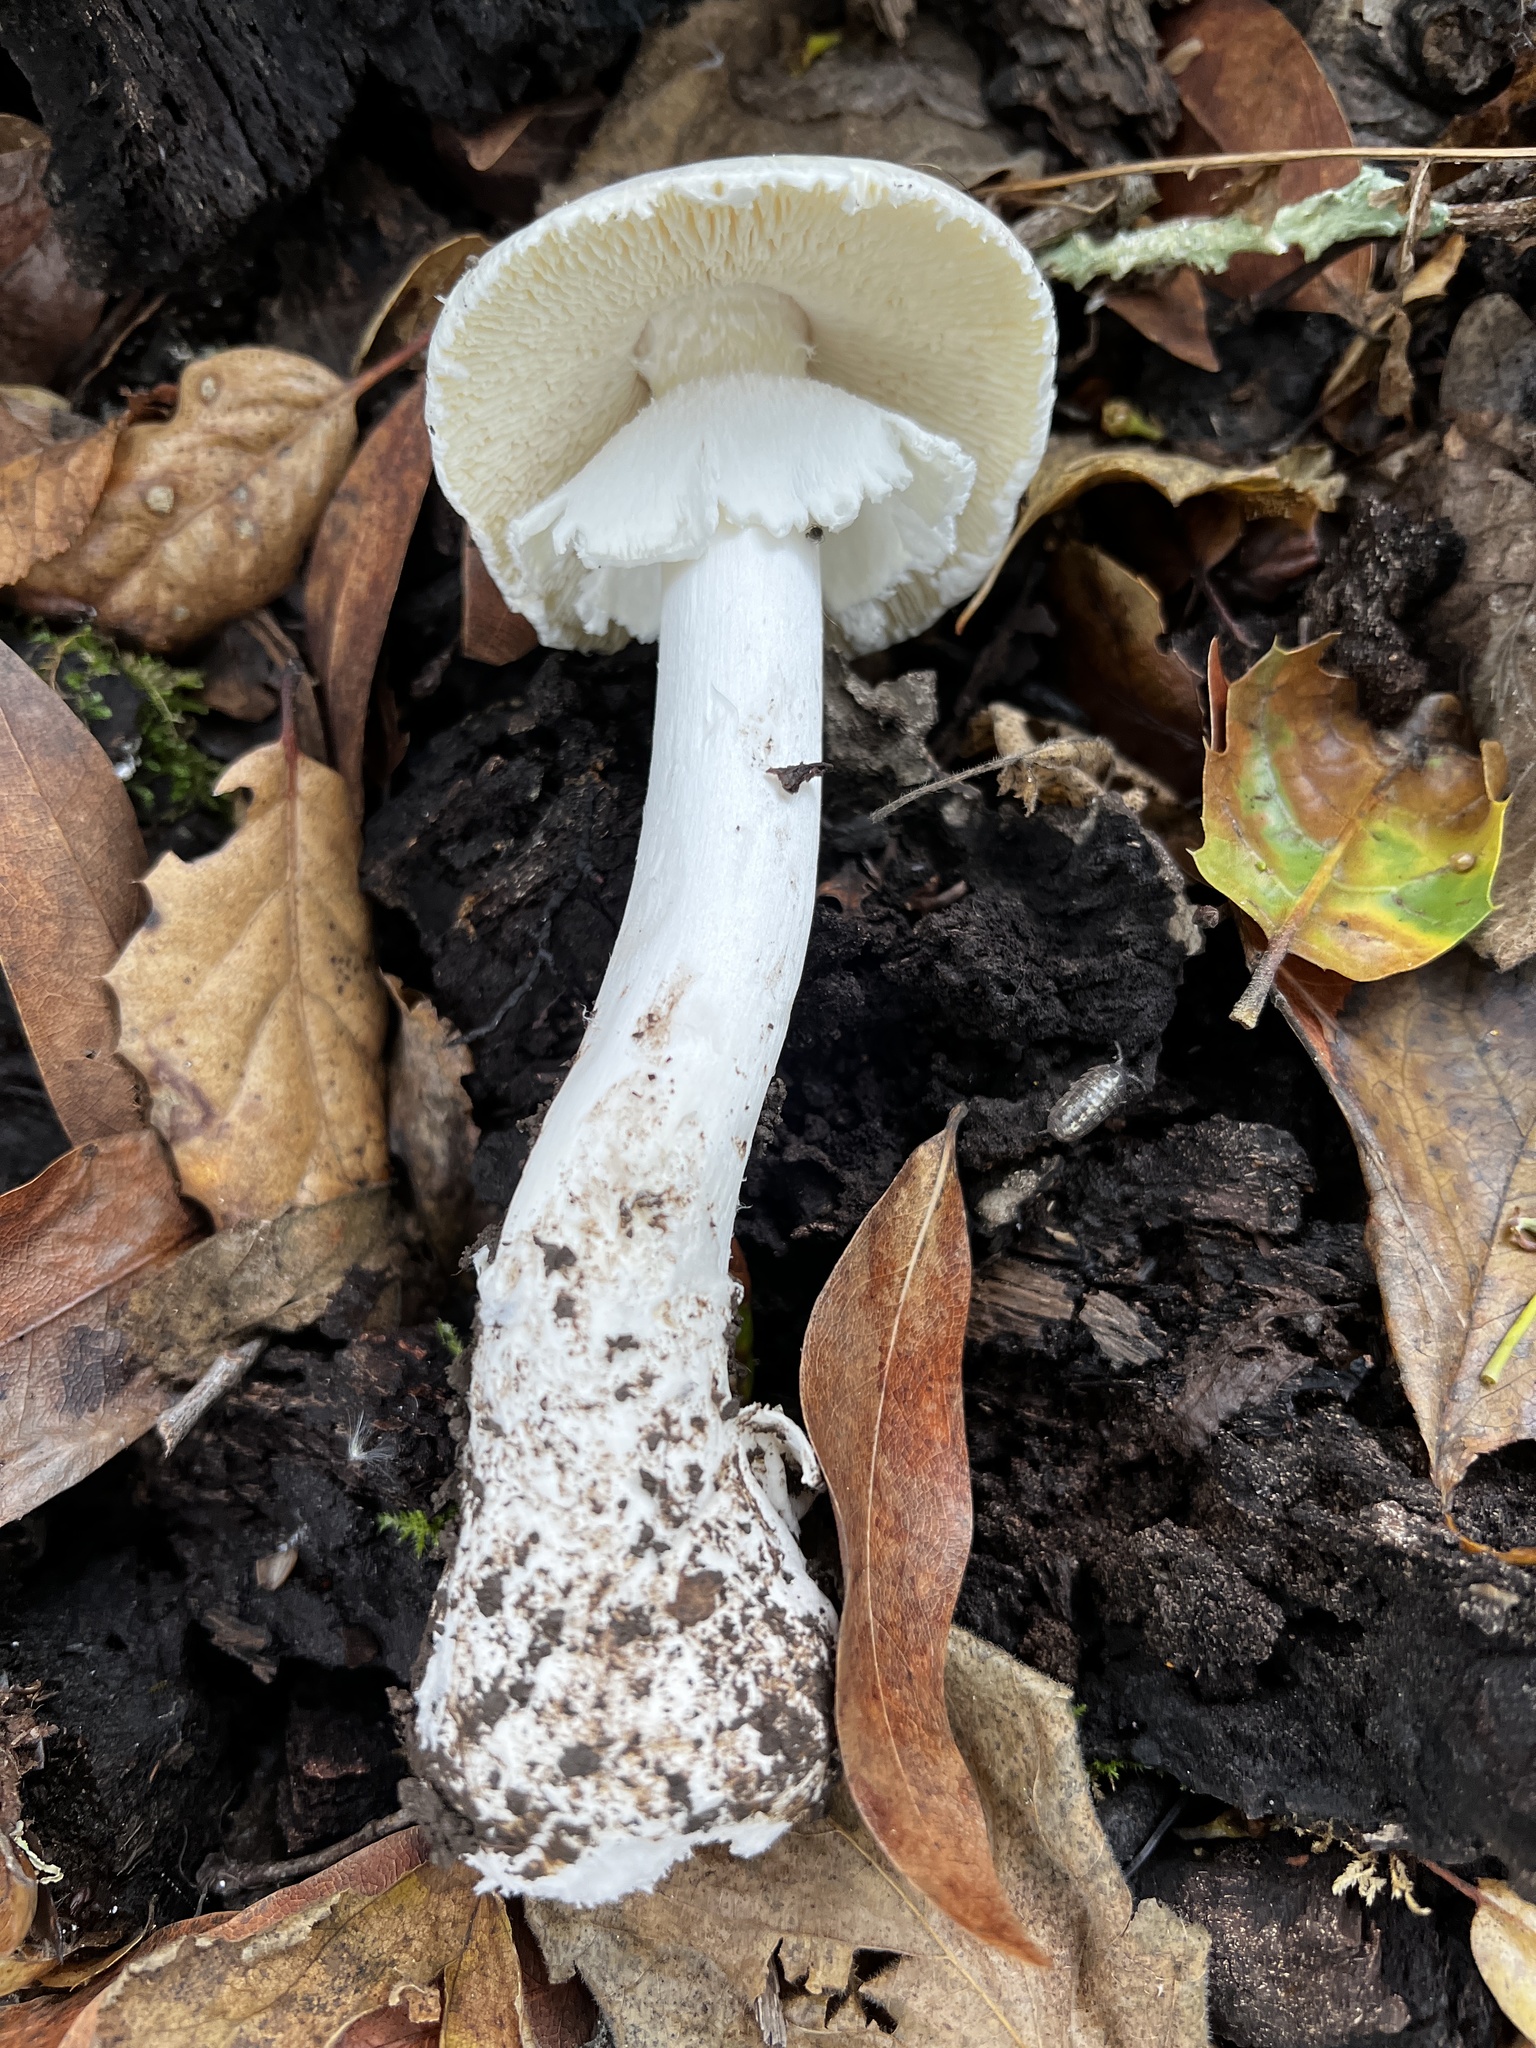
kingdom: Fungi
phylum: Basidiomycota
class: Agaricomycetes
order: Agaricales
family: Amanitaceae
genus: Amanita
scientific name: Amanita phalloides
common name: Death cap
